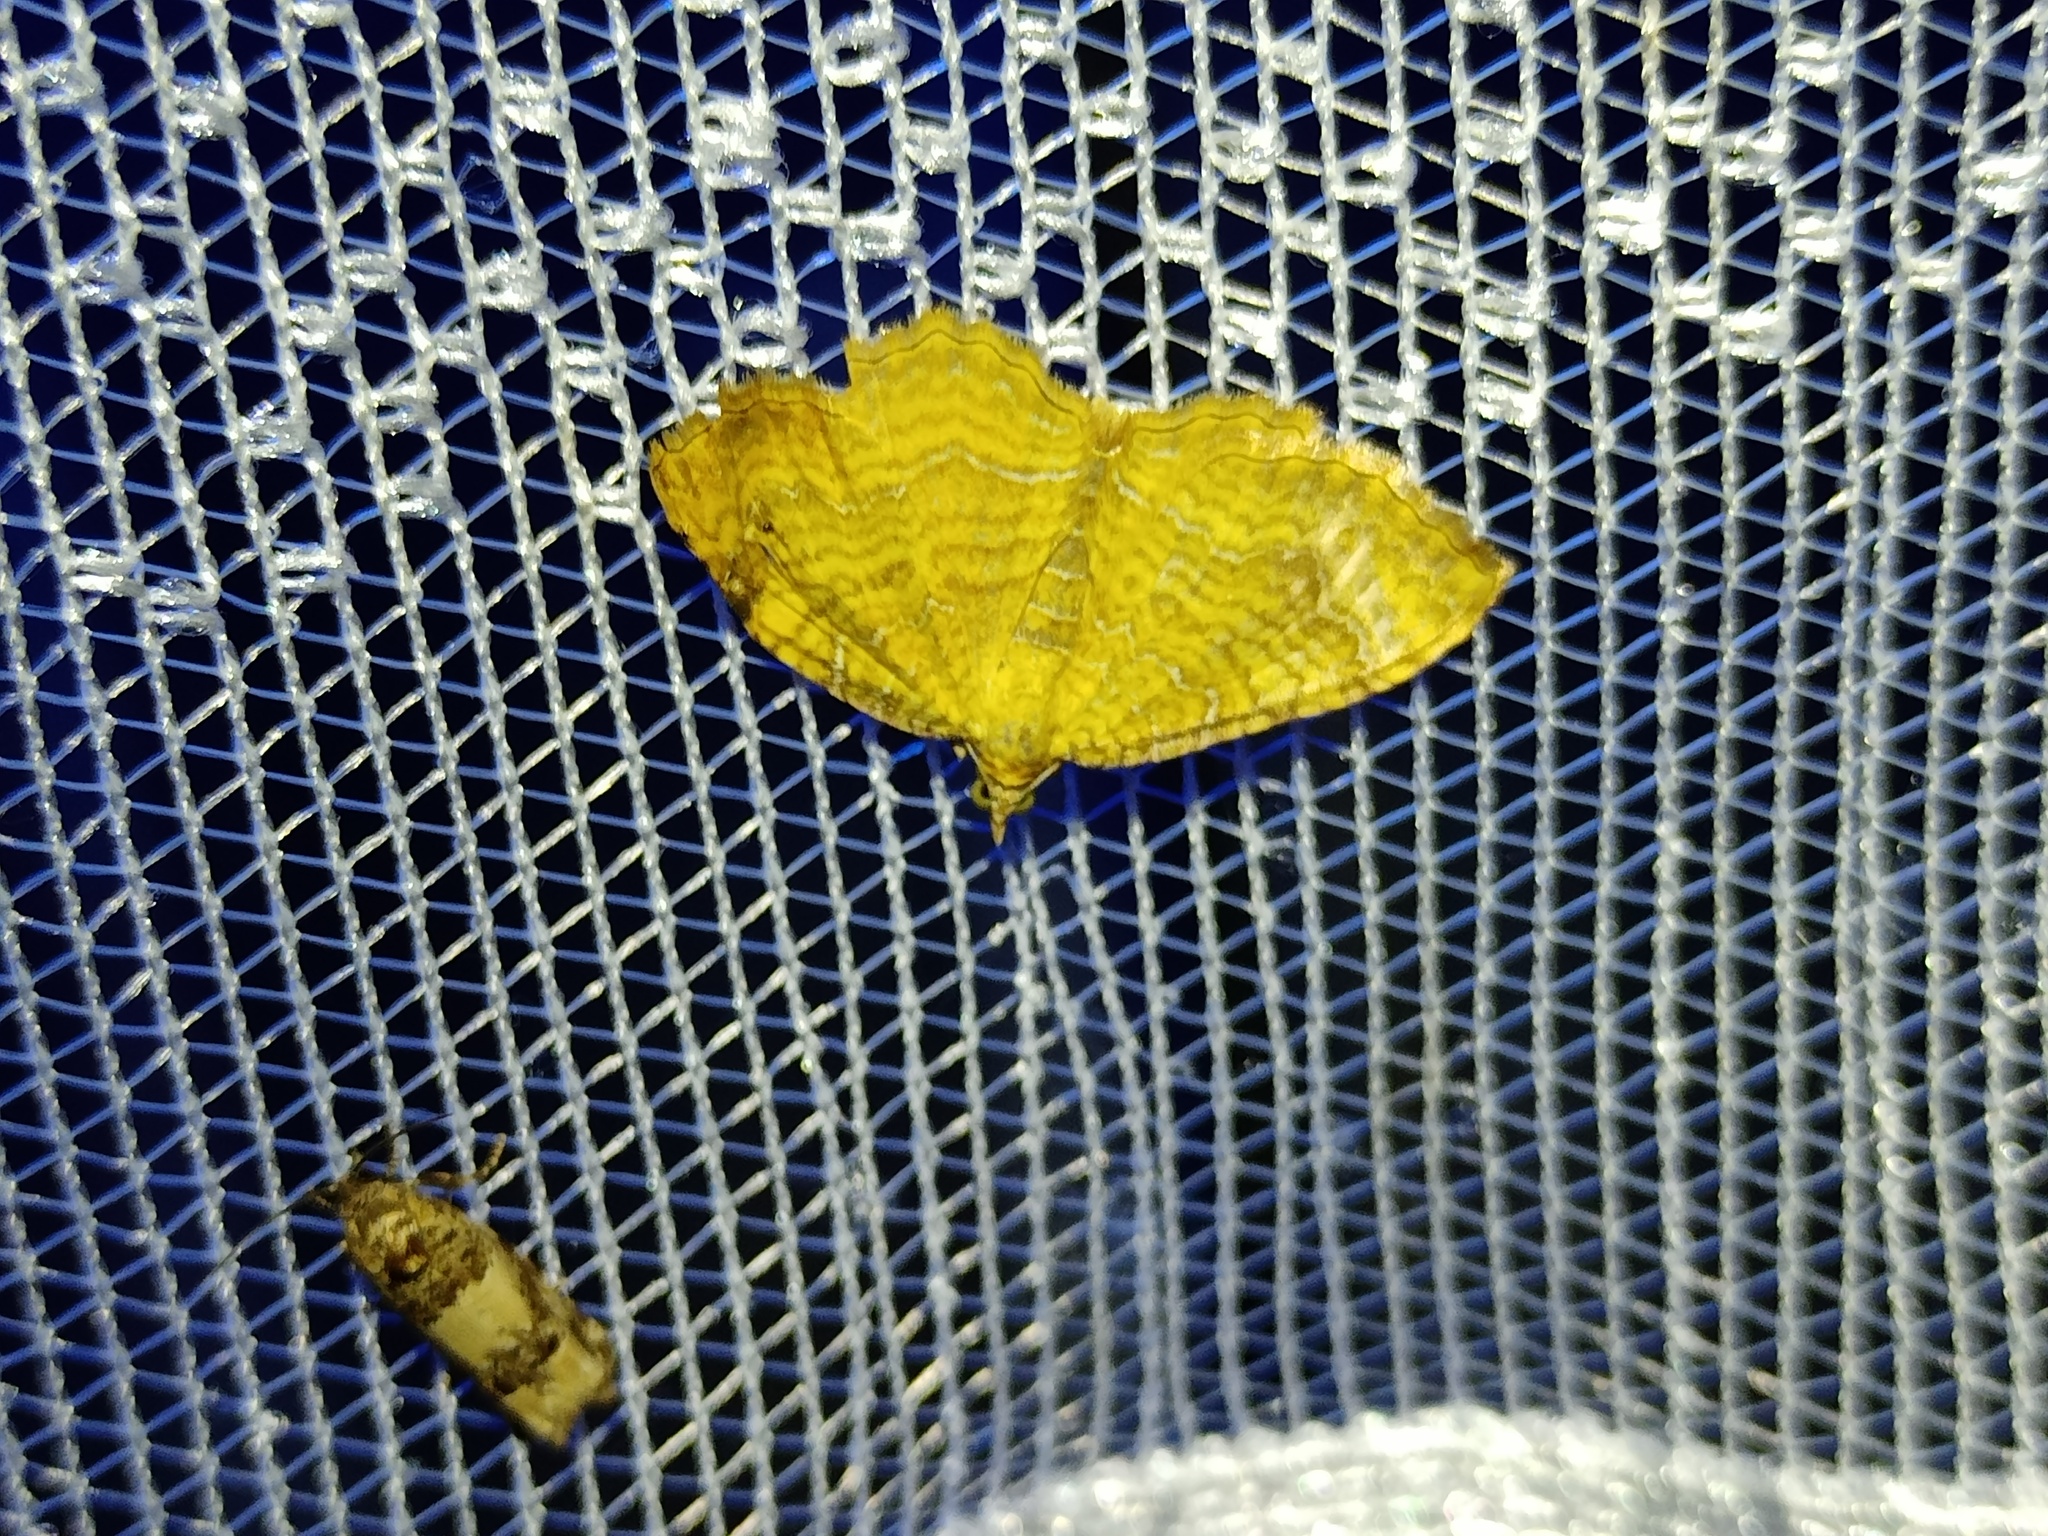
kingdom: Animalia
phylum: Arthropoda
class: Insecta
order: Lepidoptera
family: Geometridae
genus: Camptogramma
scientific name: Camptogramma bilineata
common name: Yellow shell
